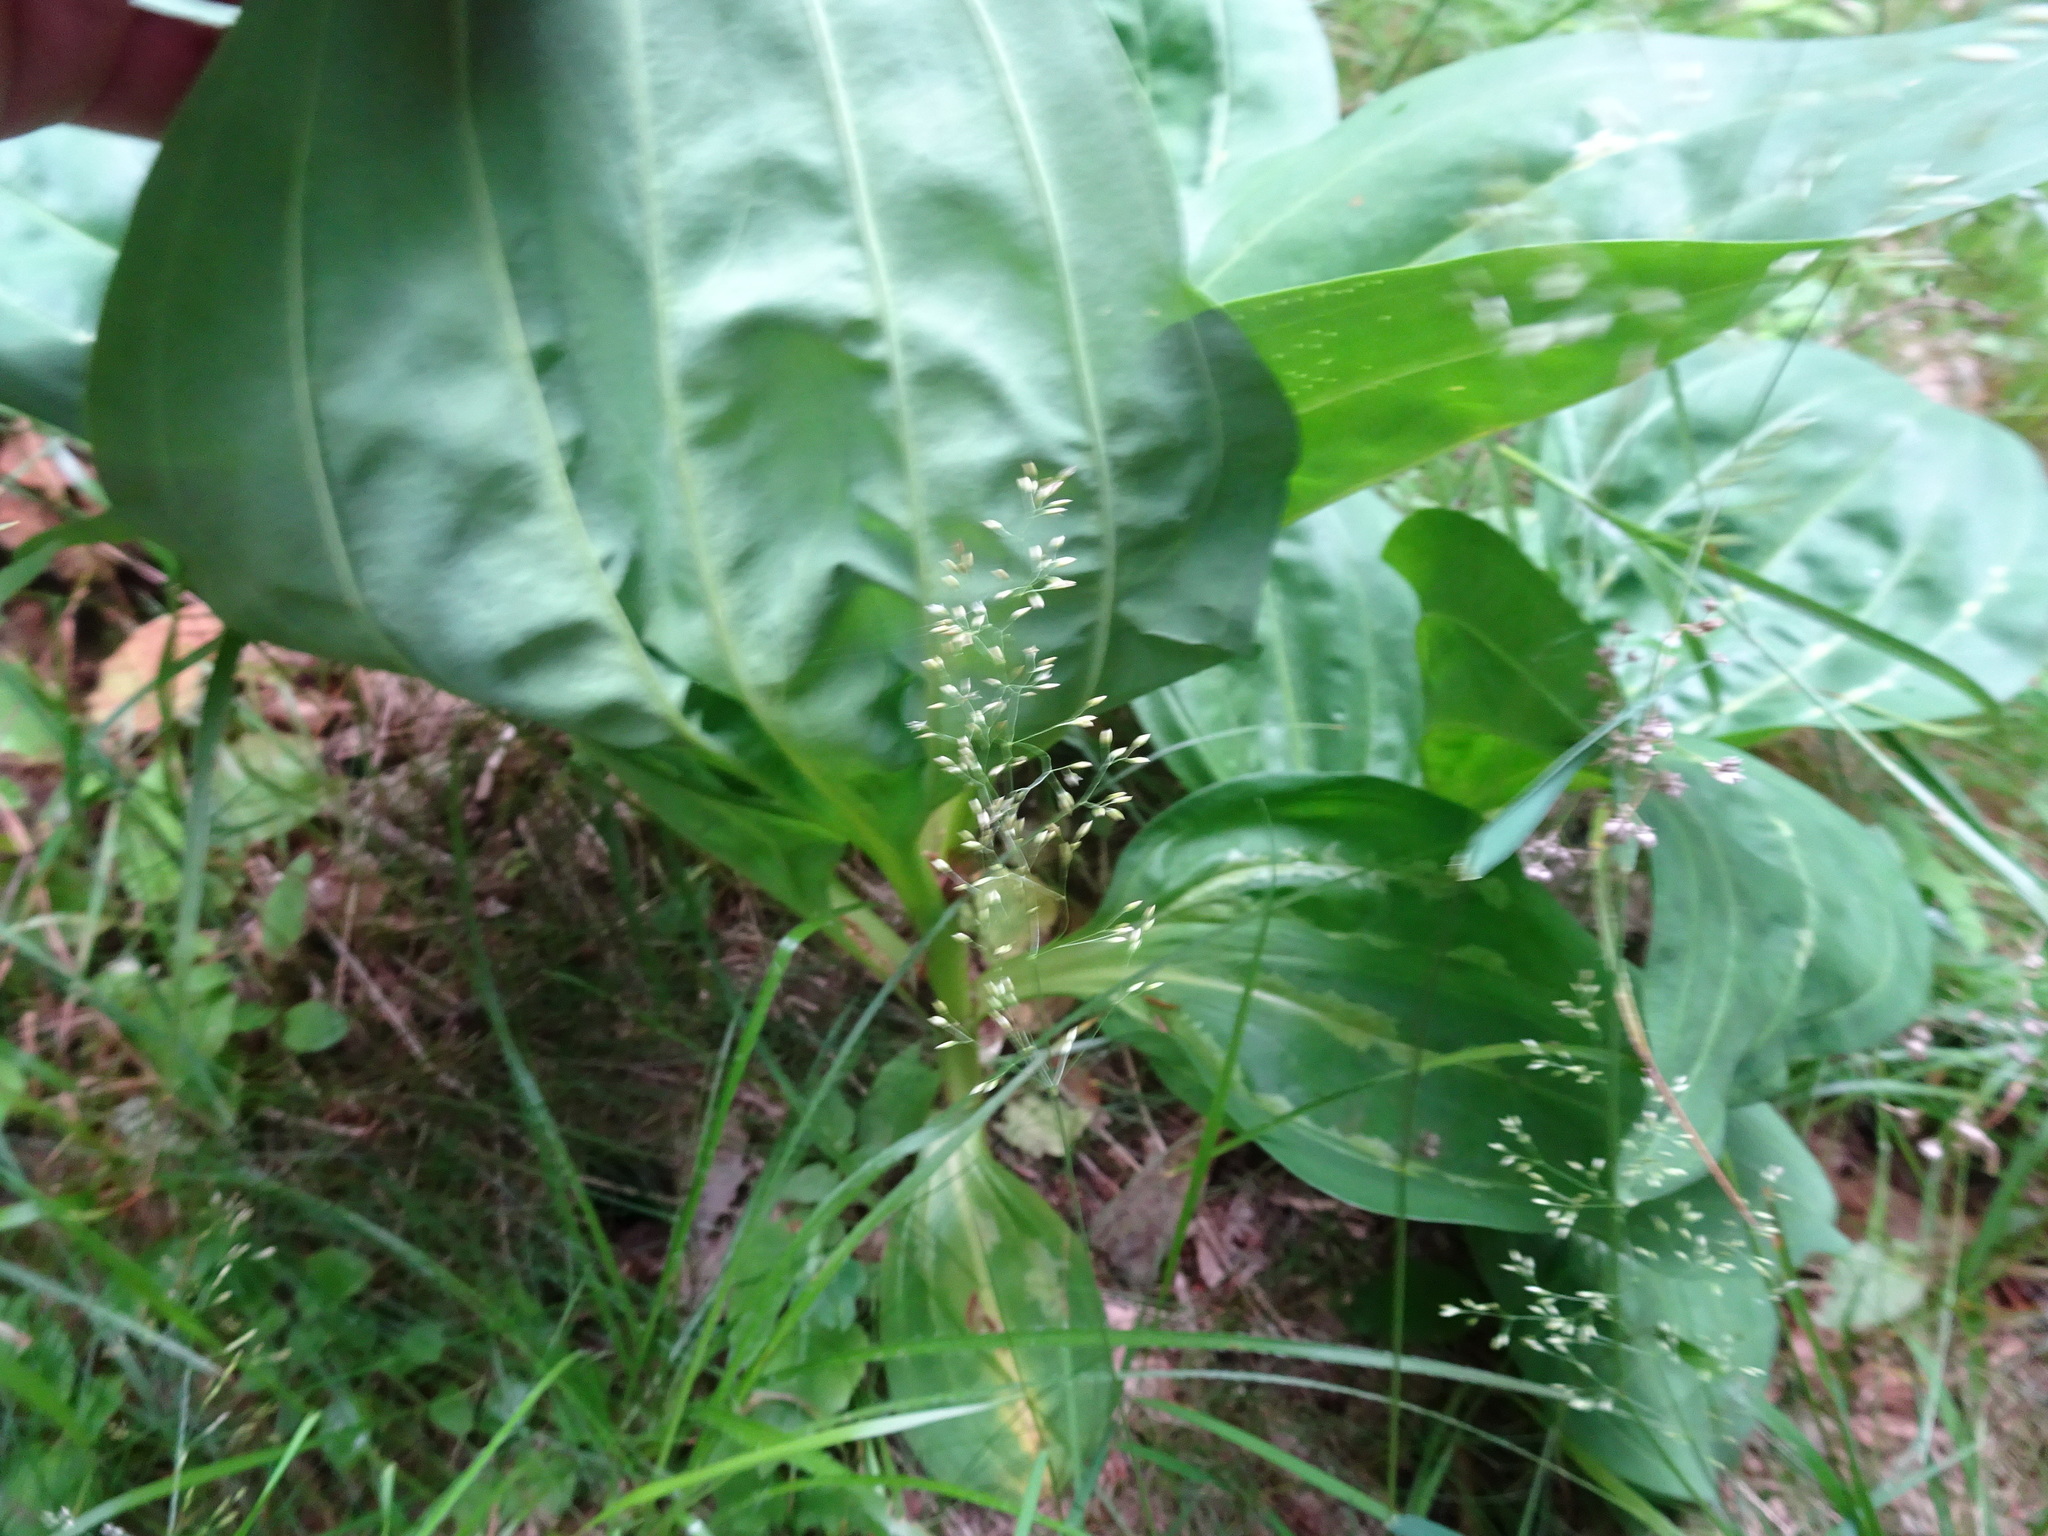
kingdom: Plantae
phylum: Tracheophyta
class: Magnoliopsida
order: Gentianales
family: Gentianaceae
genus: Gentiana
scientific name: Gentiana lutea
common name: Great yellow gentian
